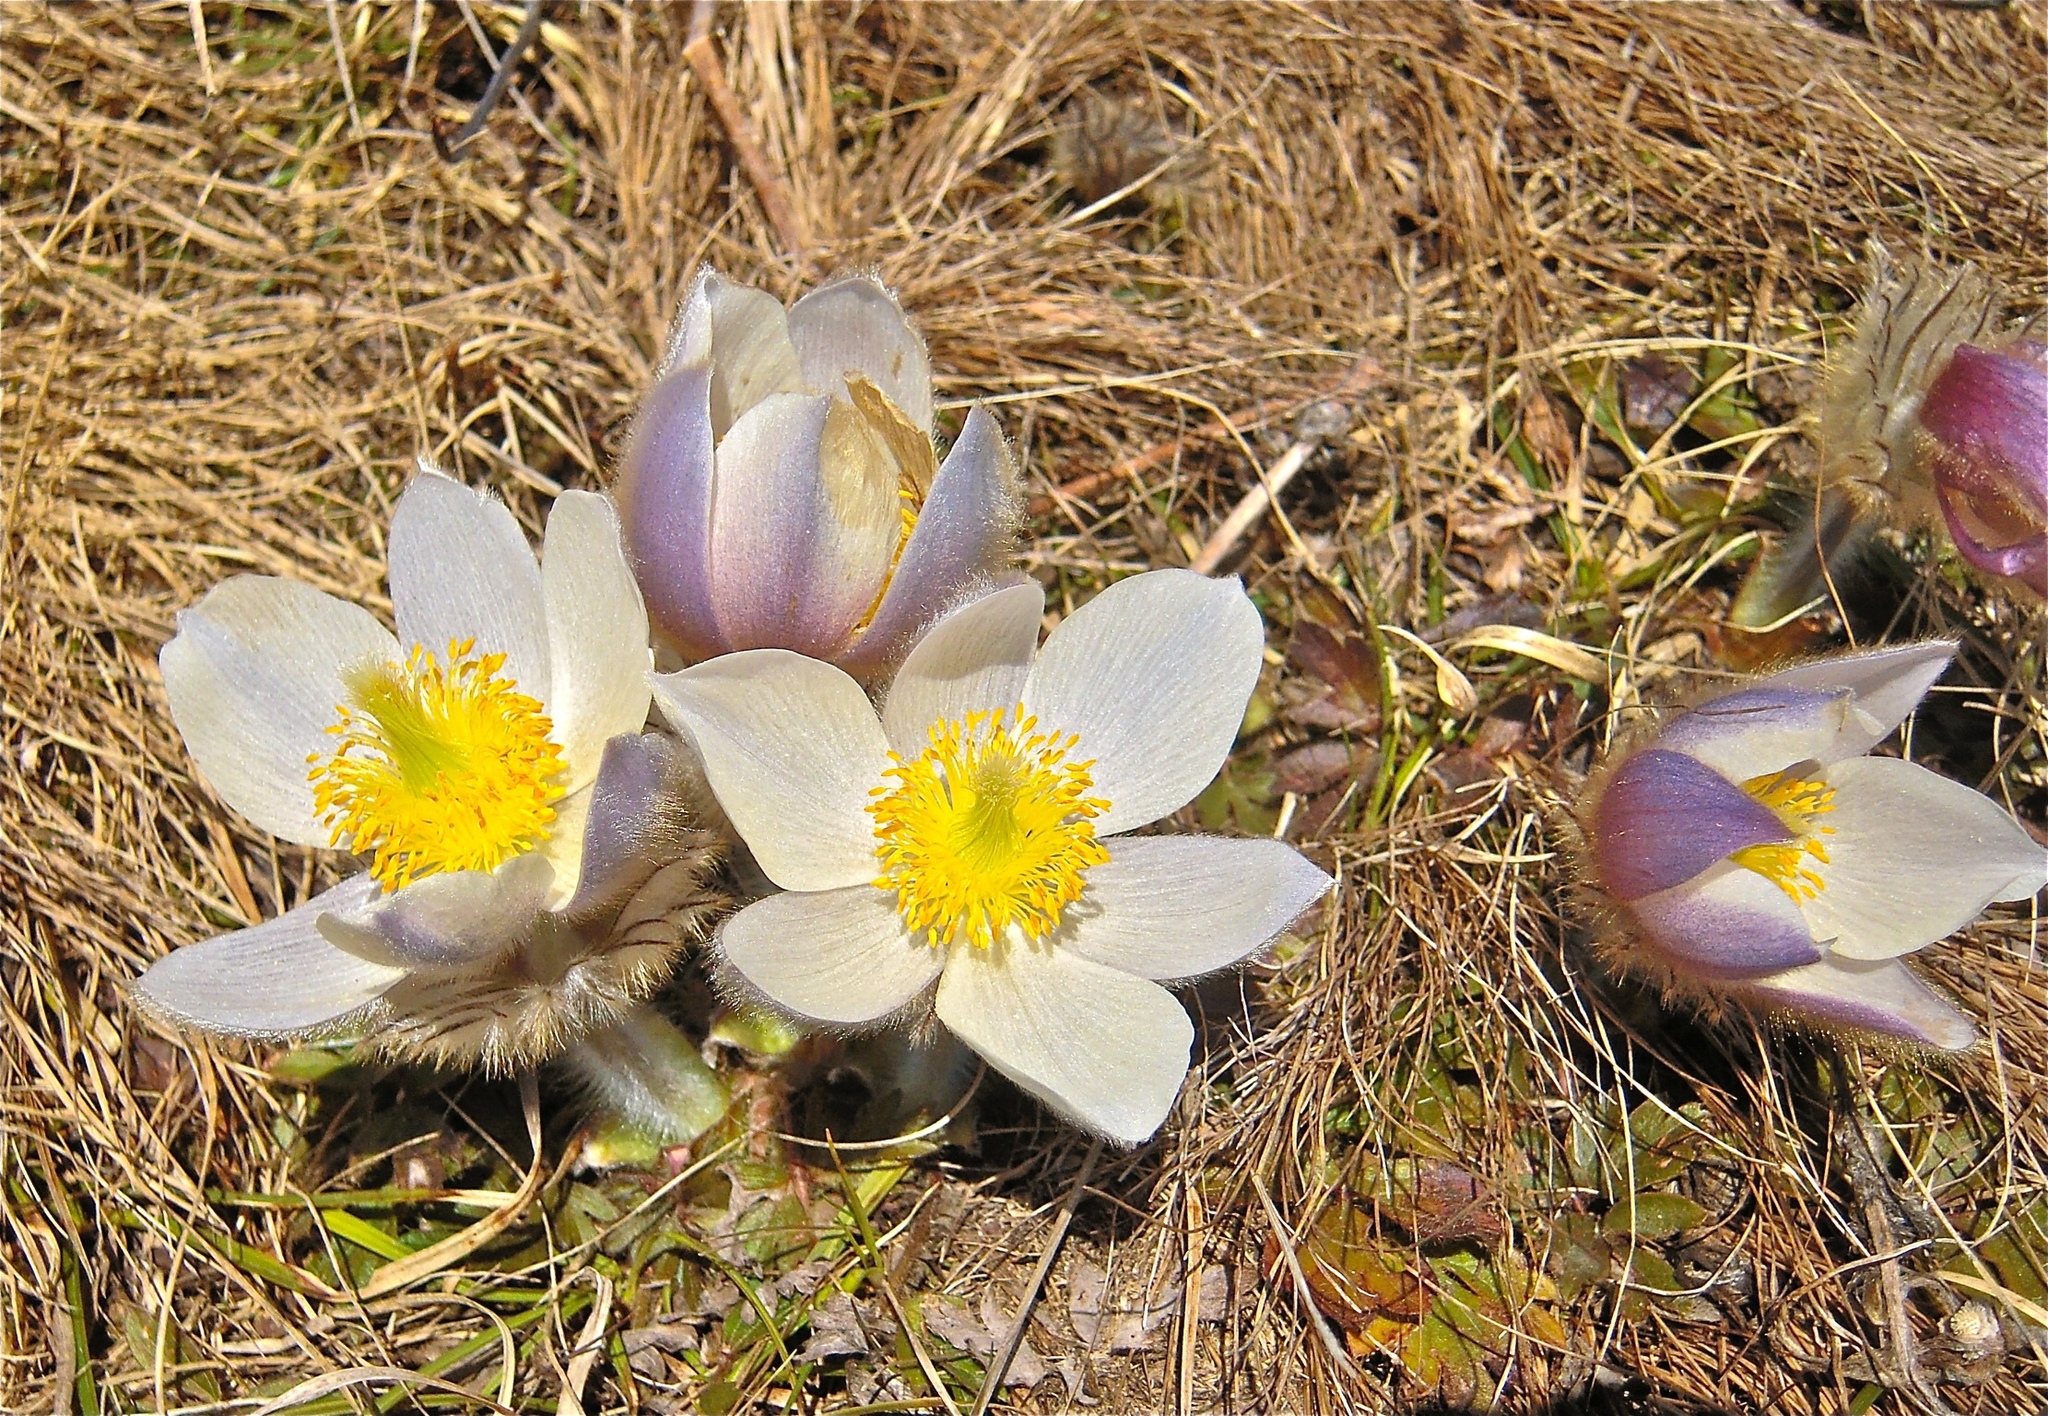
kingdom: Plantae
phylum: Tracheophyta
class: Magnoliopsida
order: Ranunculales
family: Ranunculaceae
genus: Pulsatilla
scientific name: Pulsatilla vernalis
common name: Spring pasque flower
